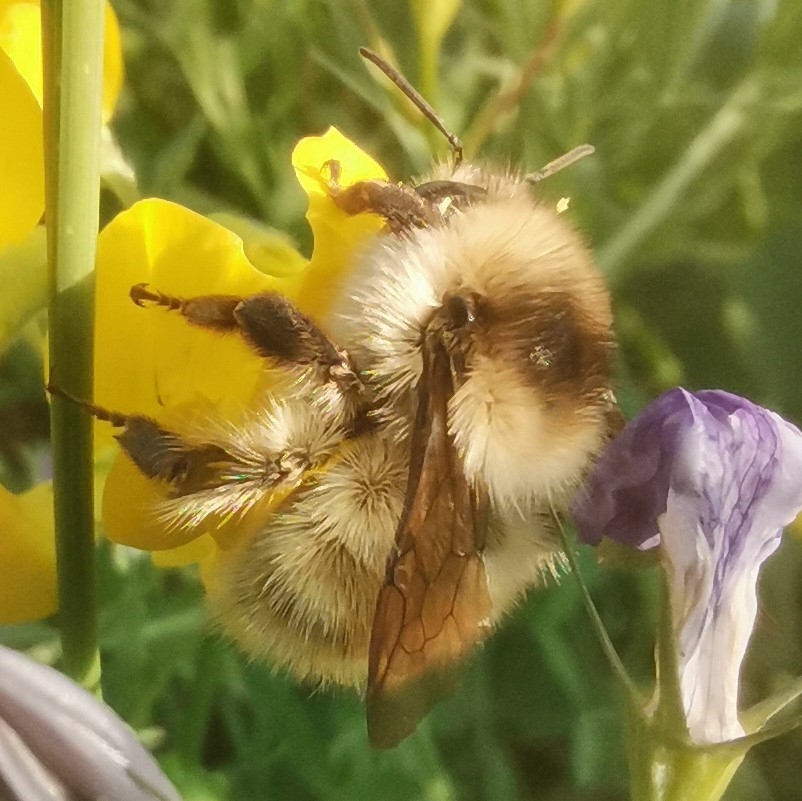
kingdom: Animalia
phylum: Arthropoda
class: Insecta
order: Hymenoptera
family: Apidae
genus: Bombus
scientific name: Bombus veteranus
